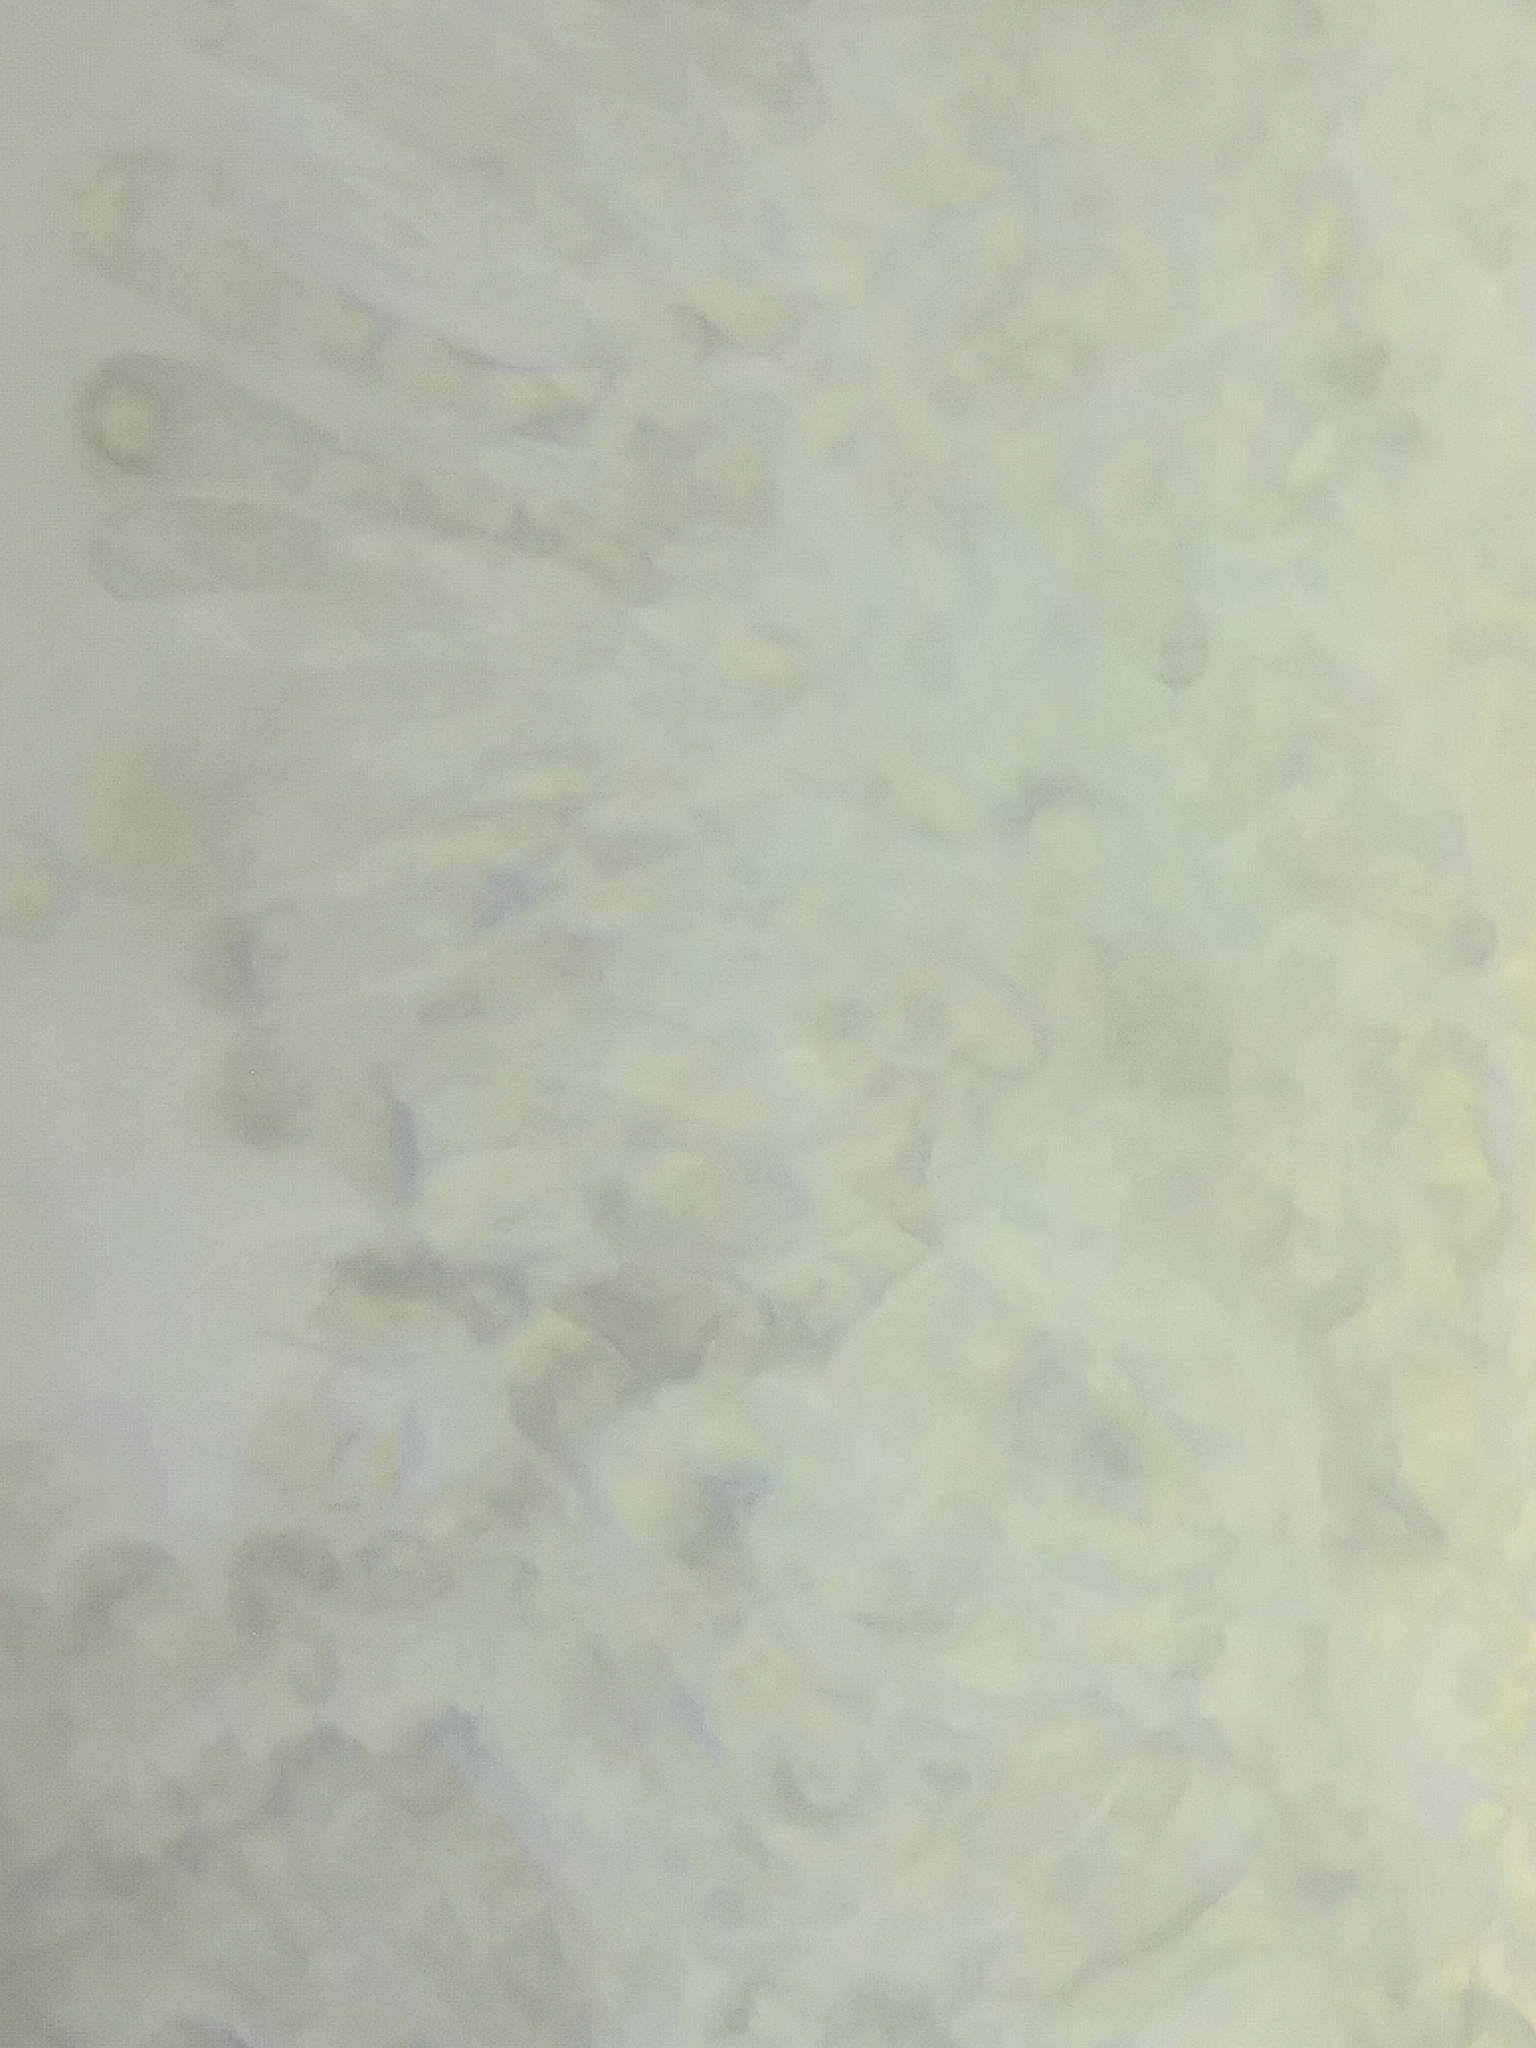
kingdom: Fungi
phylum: Basidiomycota
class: Agaricomycetes
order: Agaricales
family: Hygrophoraceae
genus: Hygrocybe
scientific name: Hygrocybe conica
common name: Blackening wax-cap
